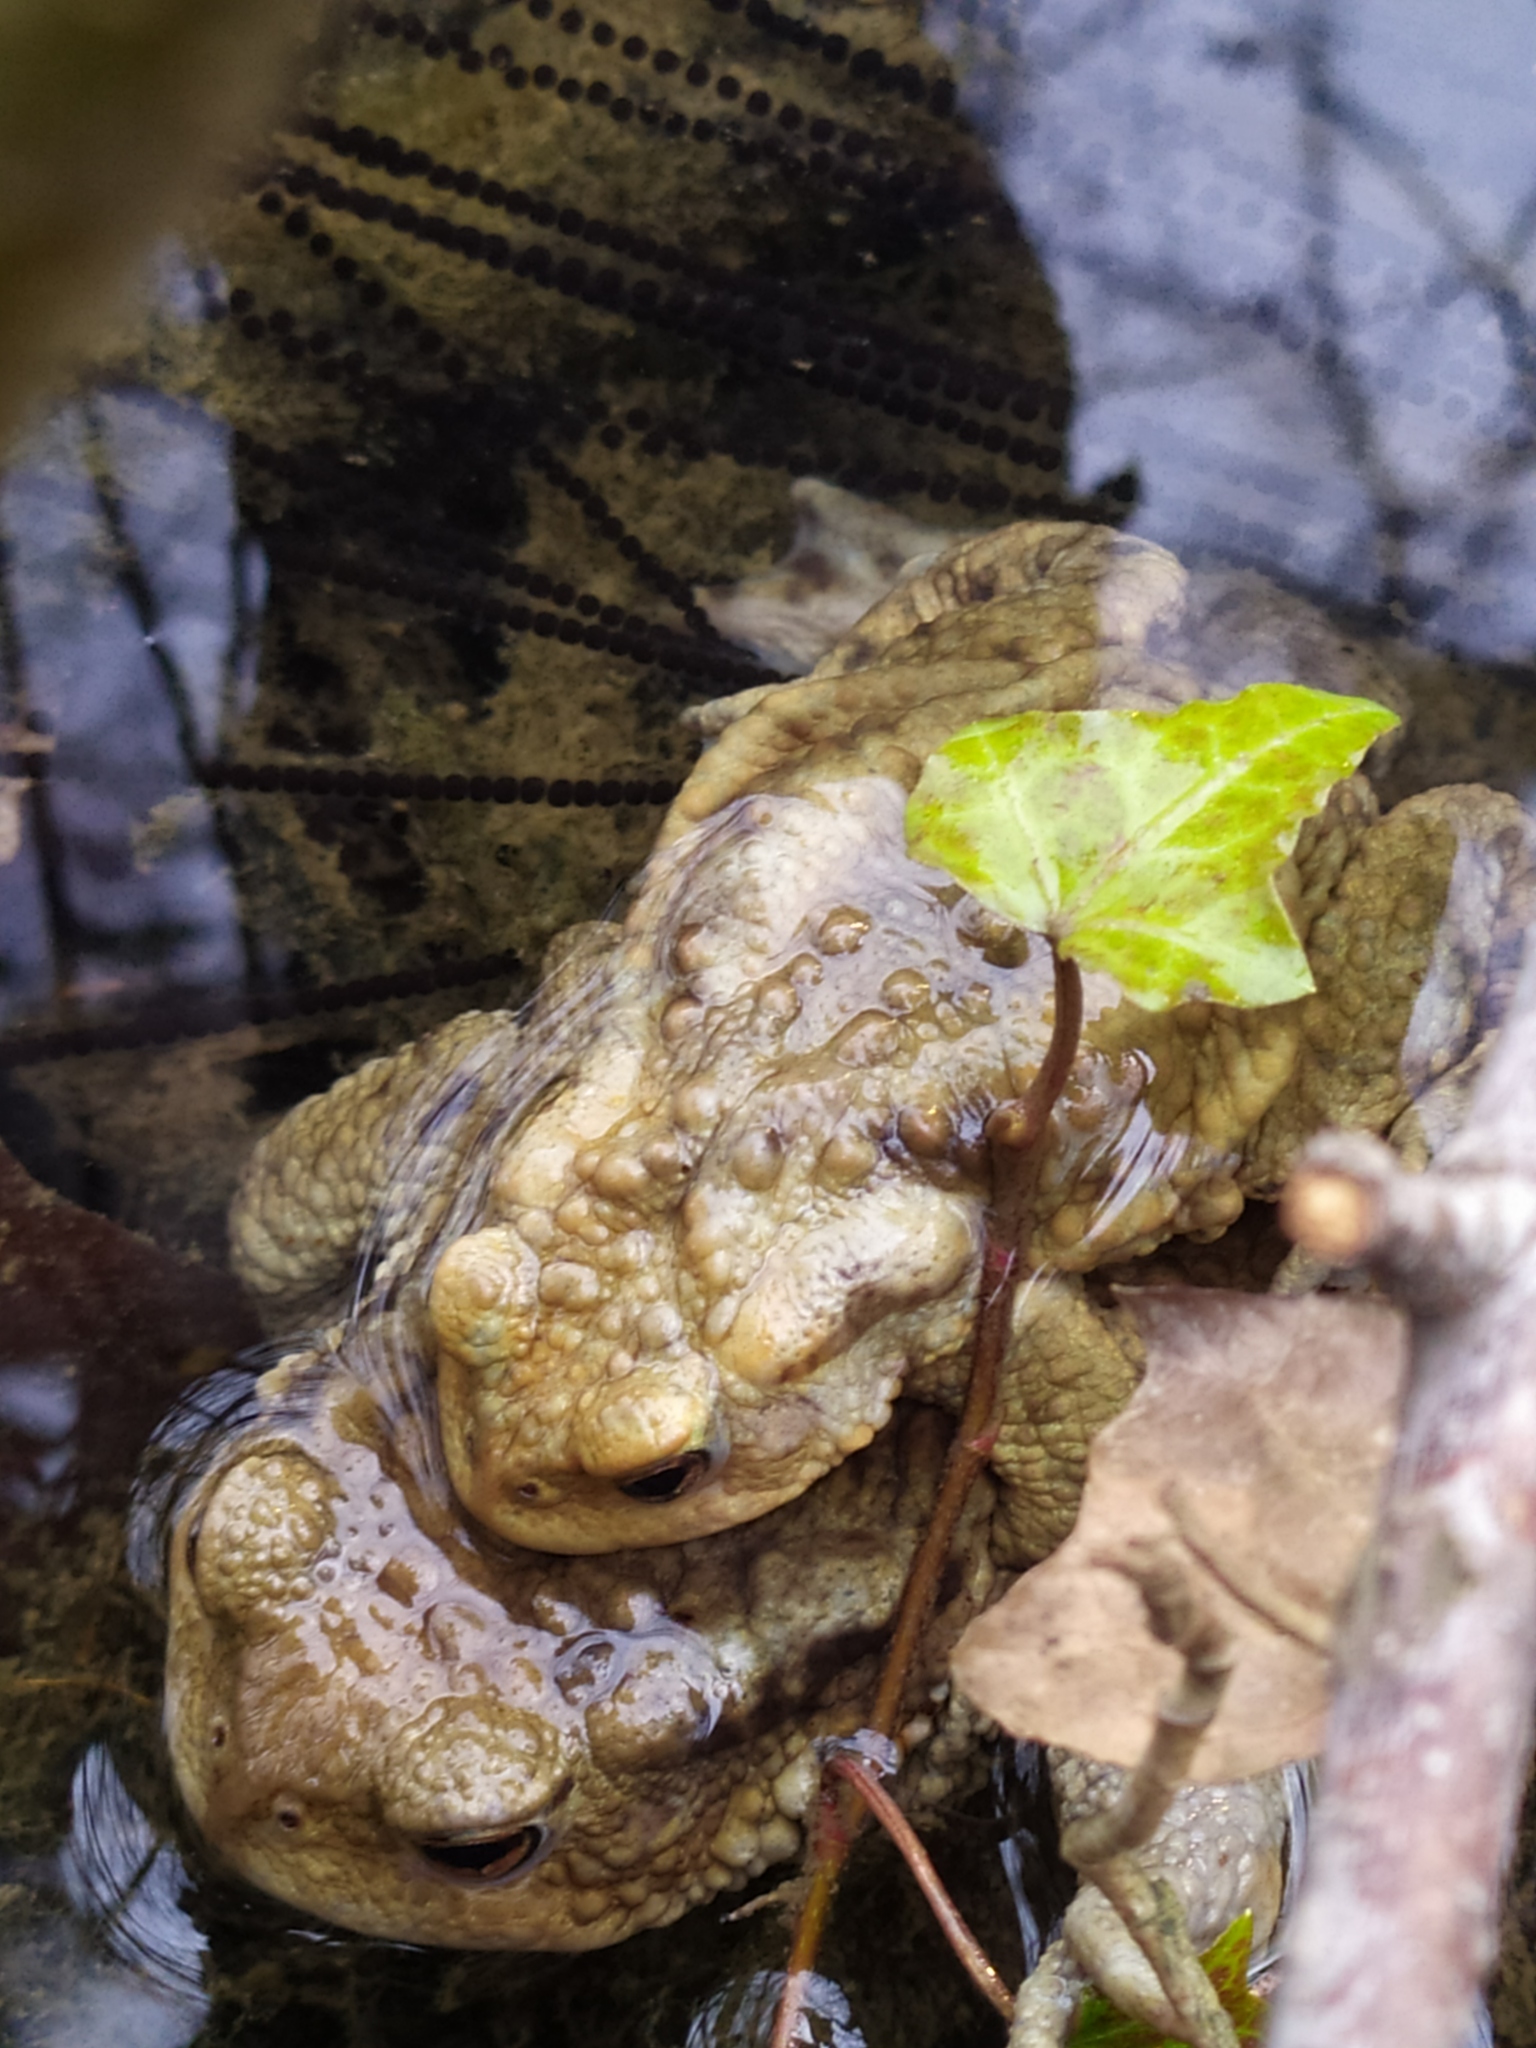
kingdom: Animalia
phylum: Chordata
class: Amphibia
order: Anura
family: Bufonidae
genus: Bufo
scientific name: Bufo bufo
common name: Common toad
